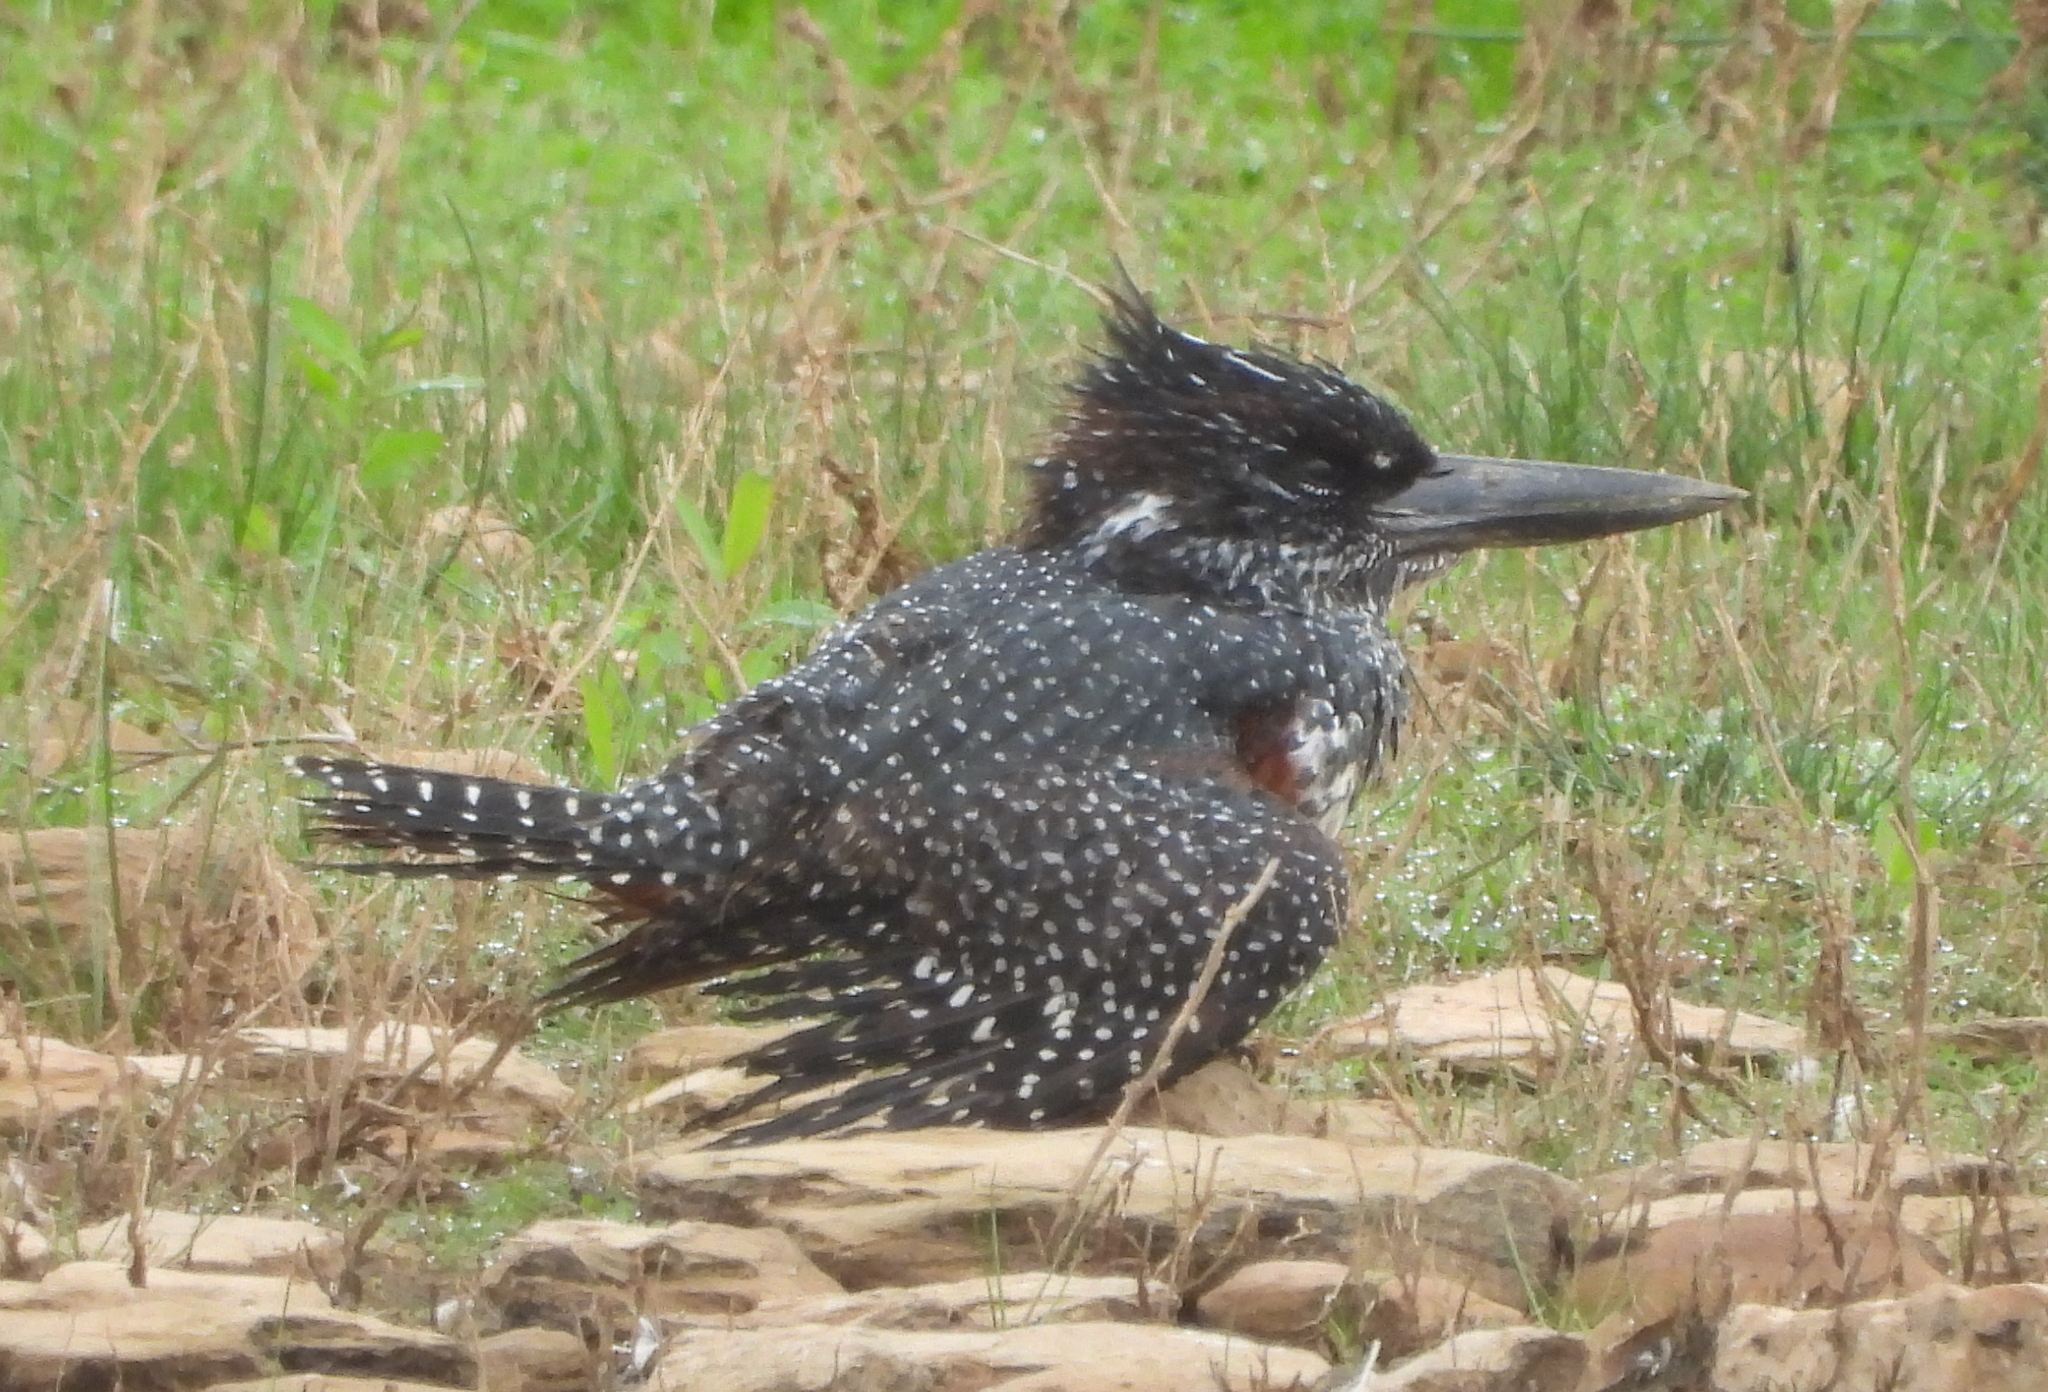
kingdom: Animalia
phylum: Chordata
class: Aves
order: Coraciiformes
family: Alcedinidae
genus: Megaceryle
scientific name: Megaceryle maxima
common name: Giant kingfisher
